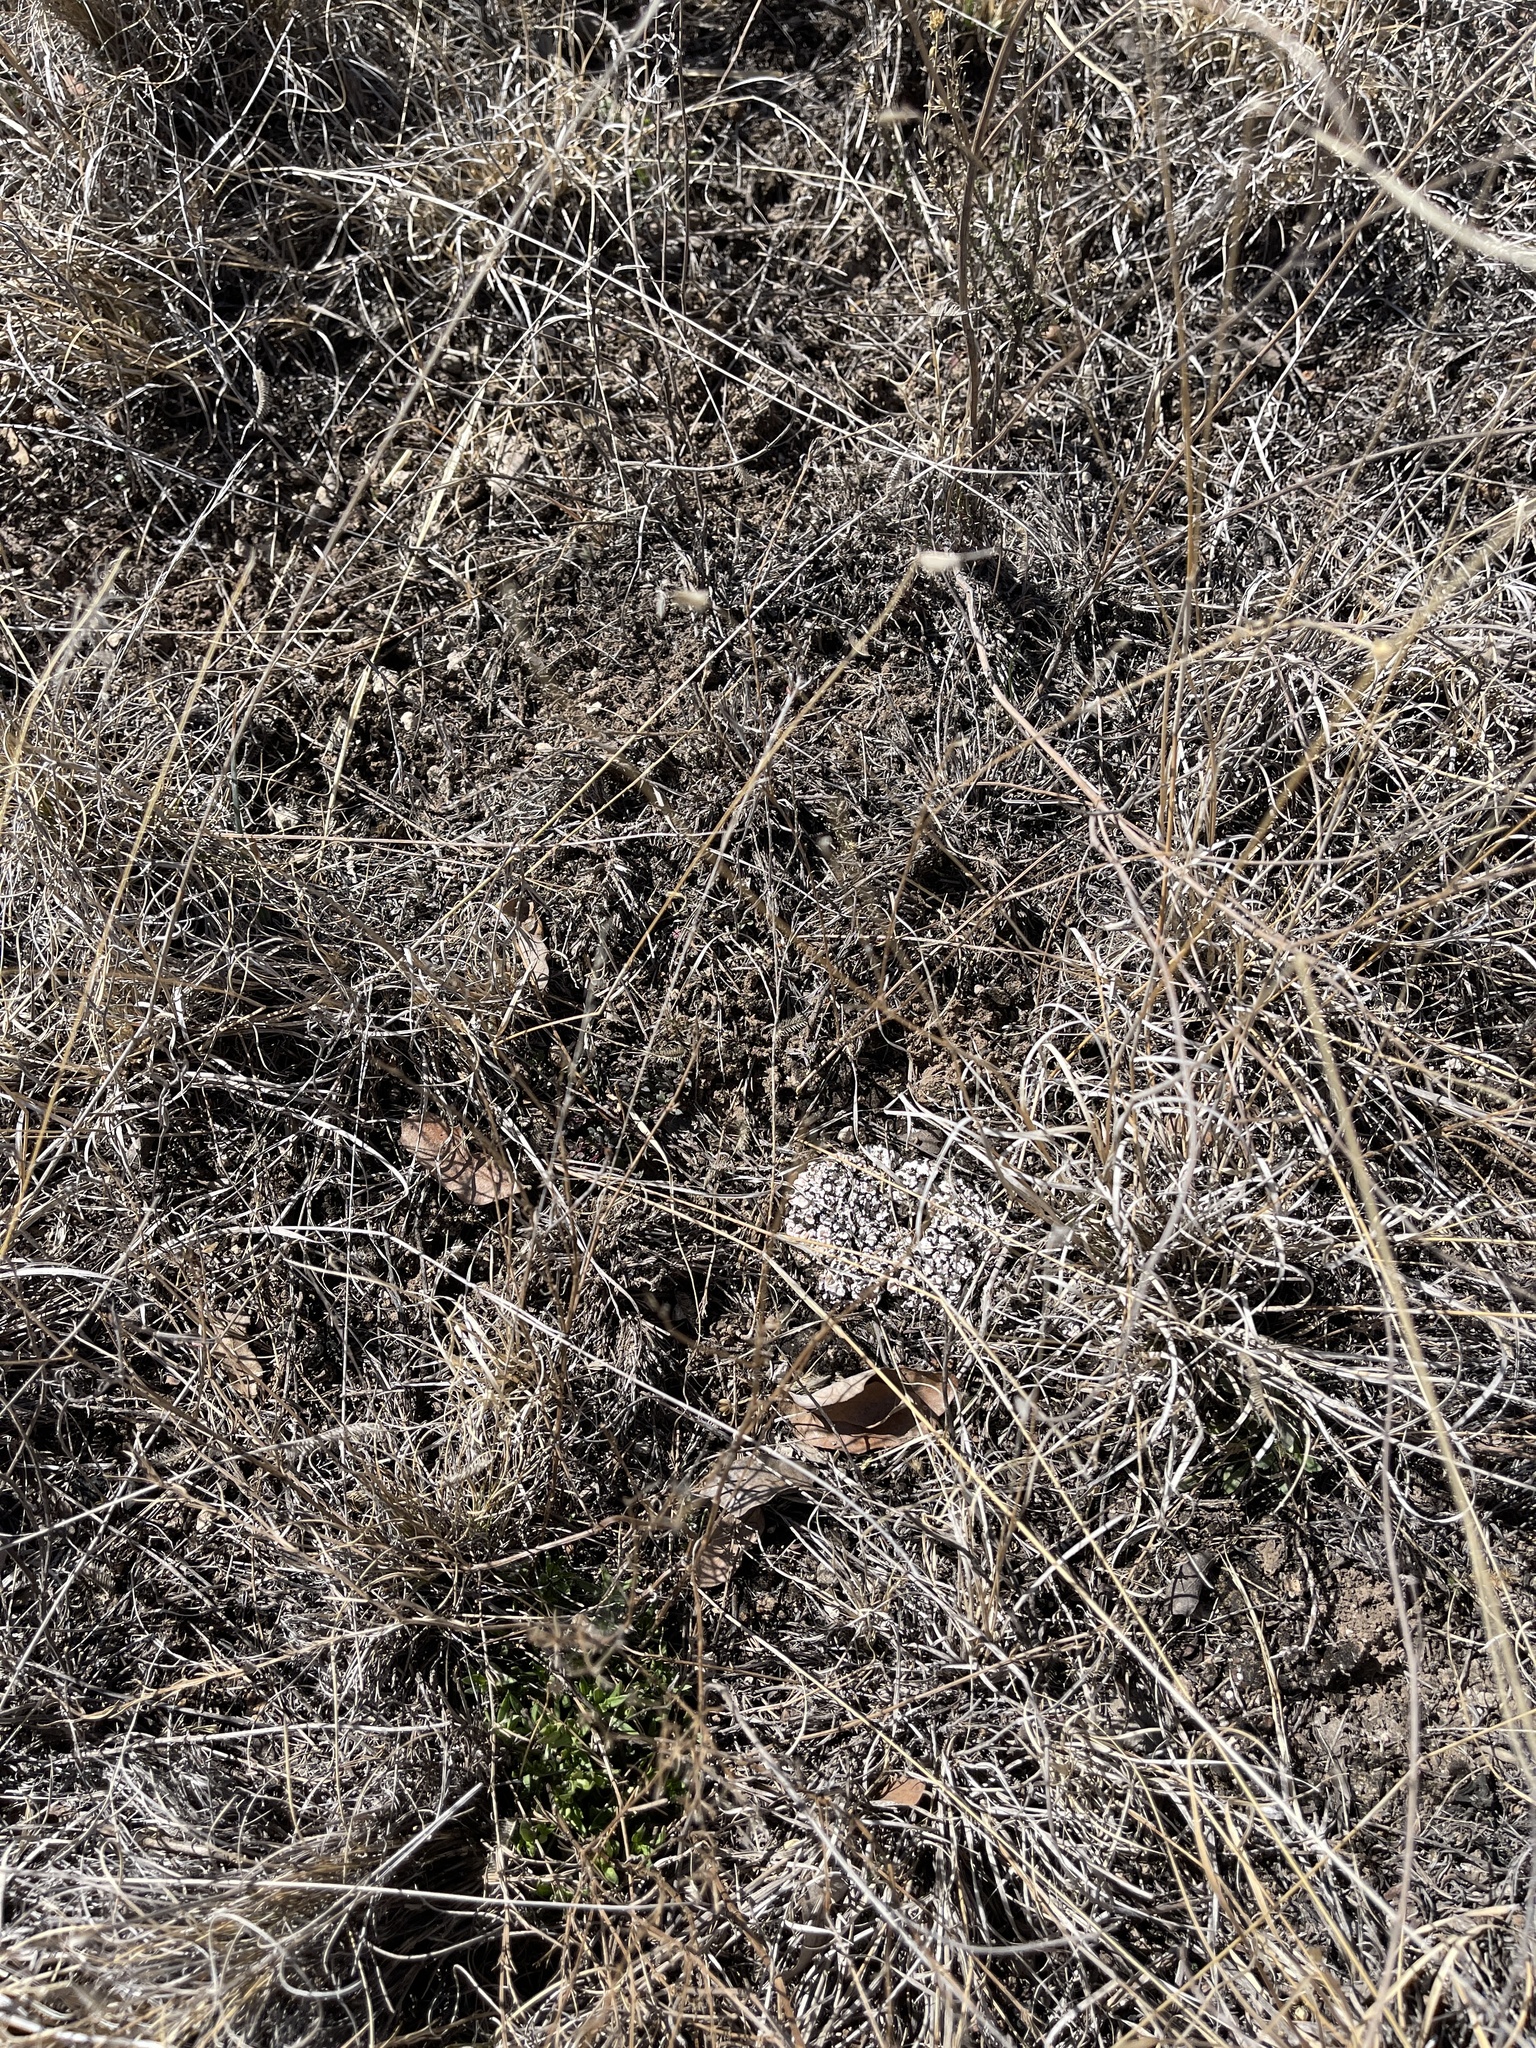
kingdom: Fungi
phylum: Ascomycota
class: Lecanoromycetes
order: Lecanorales
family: Psoraceae
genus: Psora
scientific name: Psora crenata
